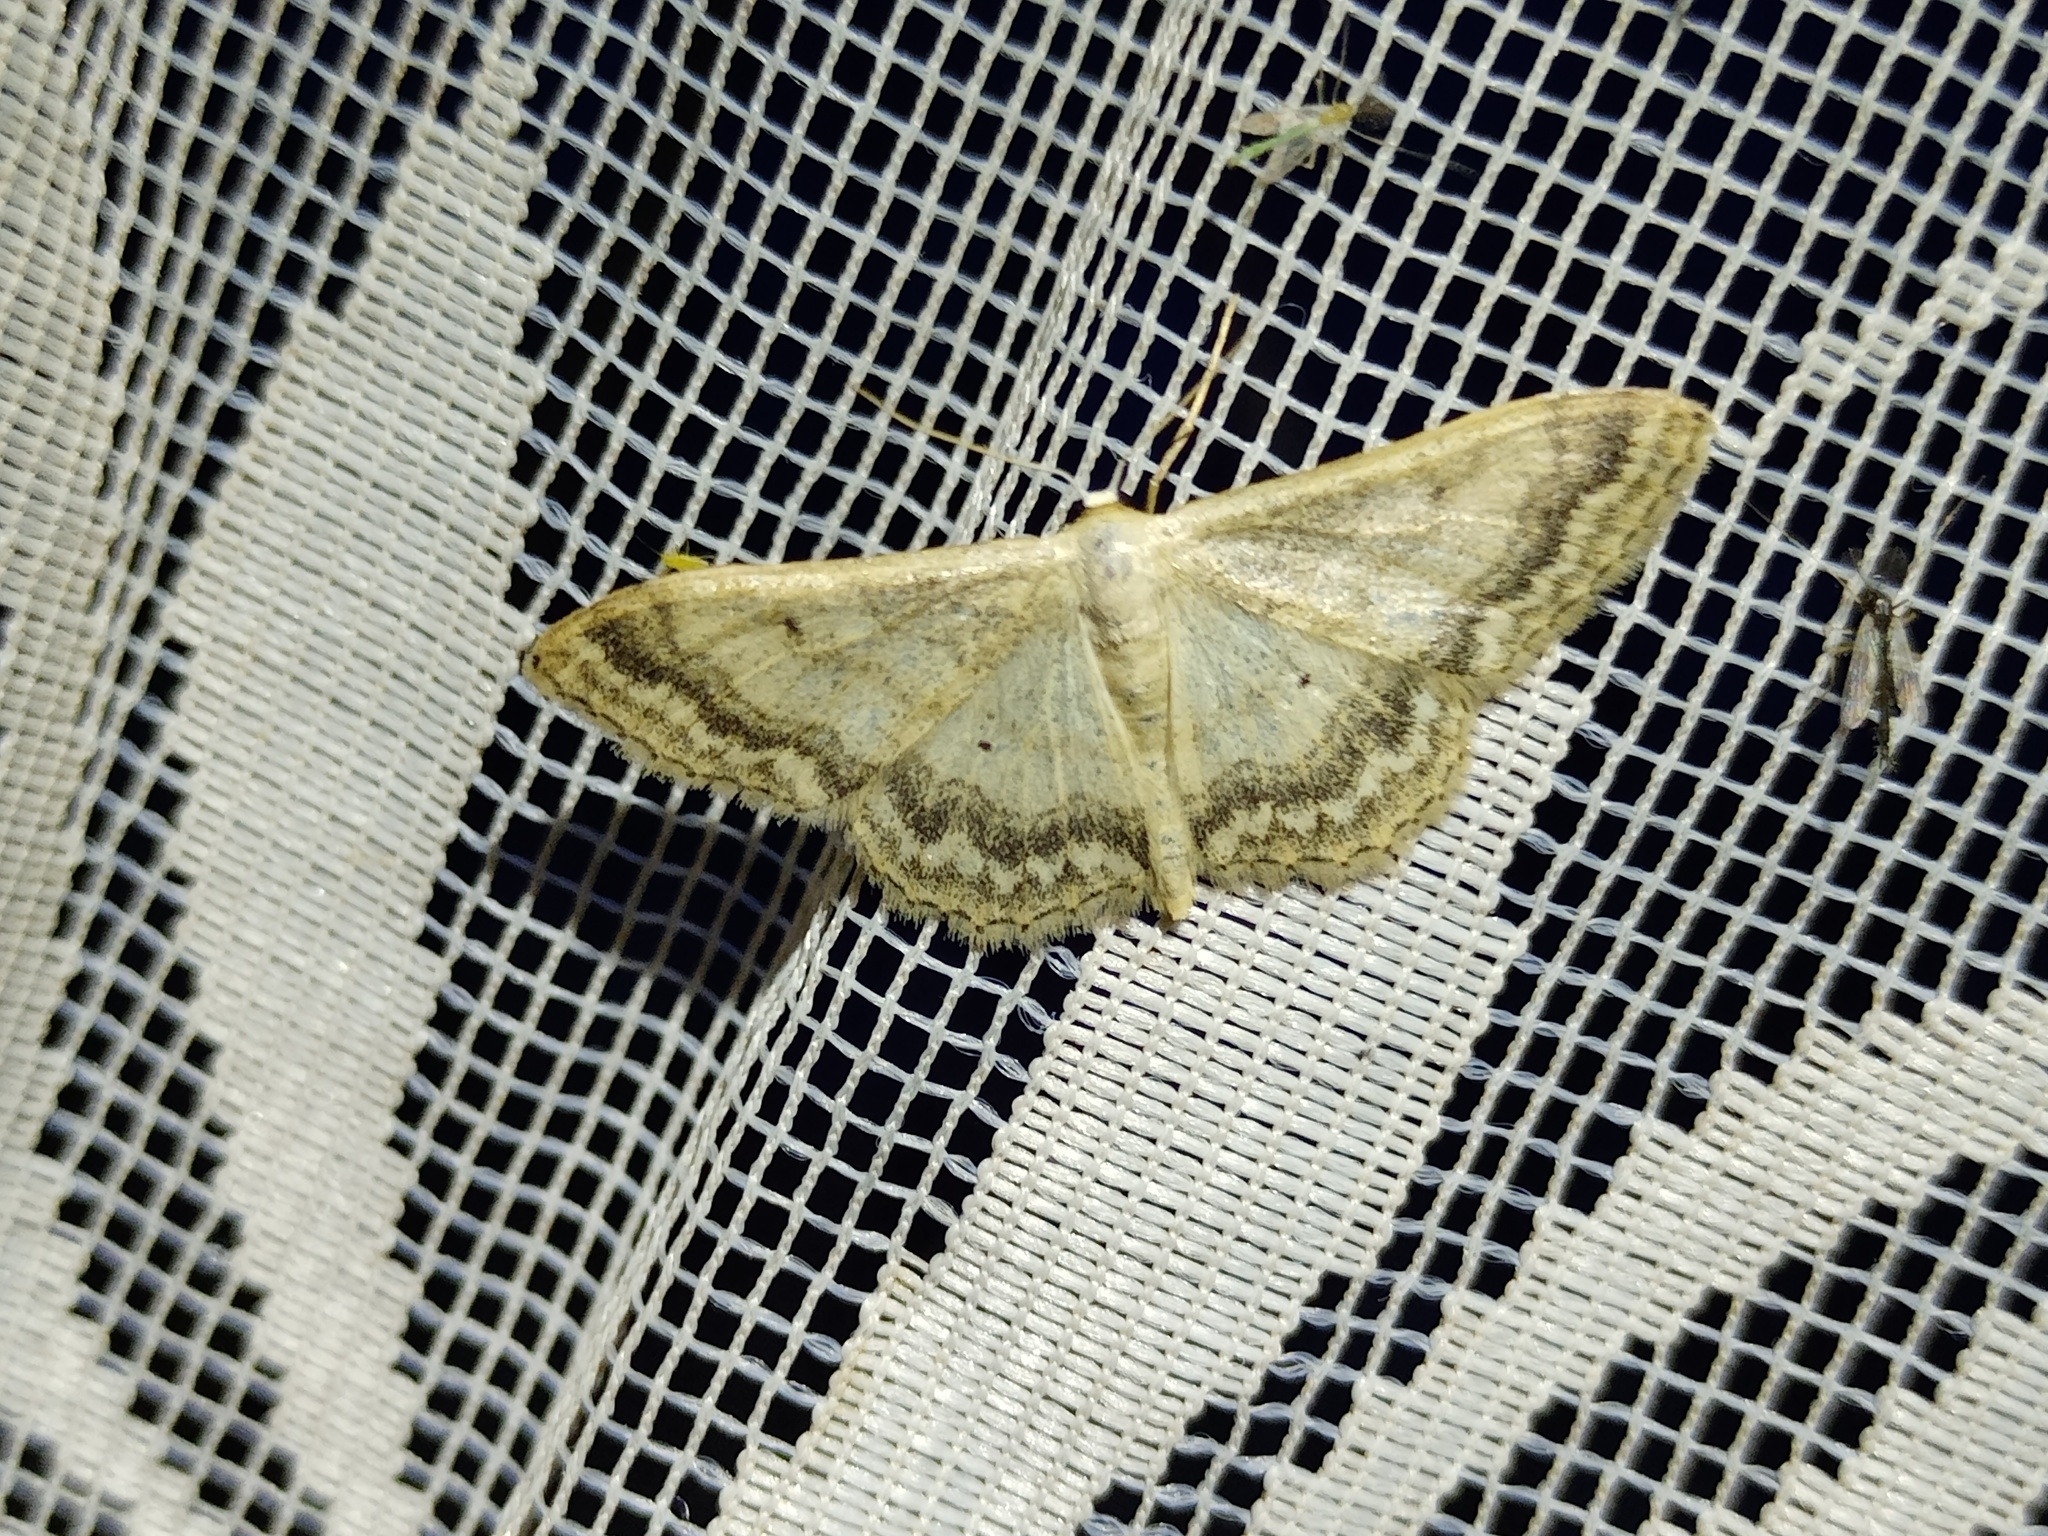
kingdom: Animalia
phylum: Arthropoda
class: Insecta
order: Lepidoptera
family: Geometridae
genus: Idaea
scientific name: Idaea maritimaria
